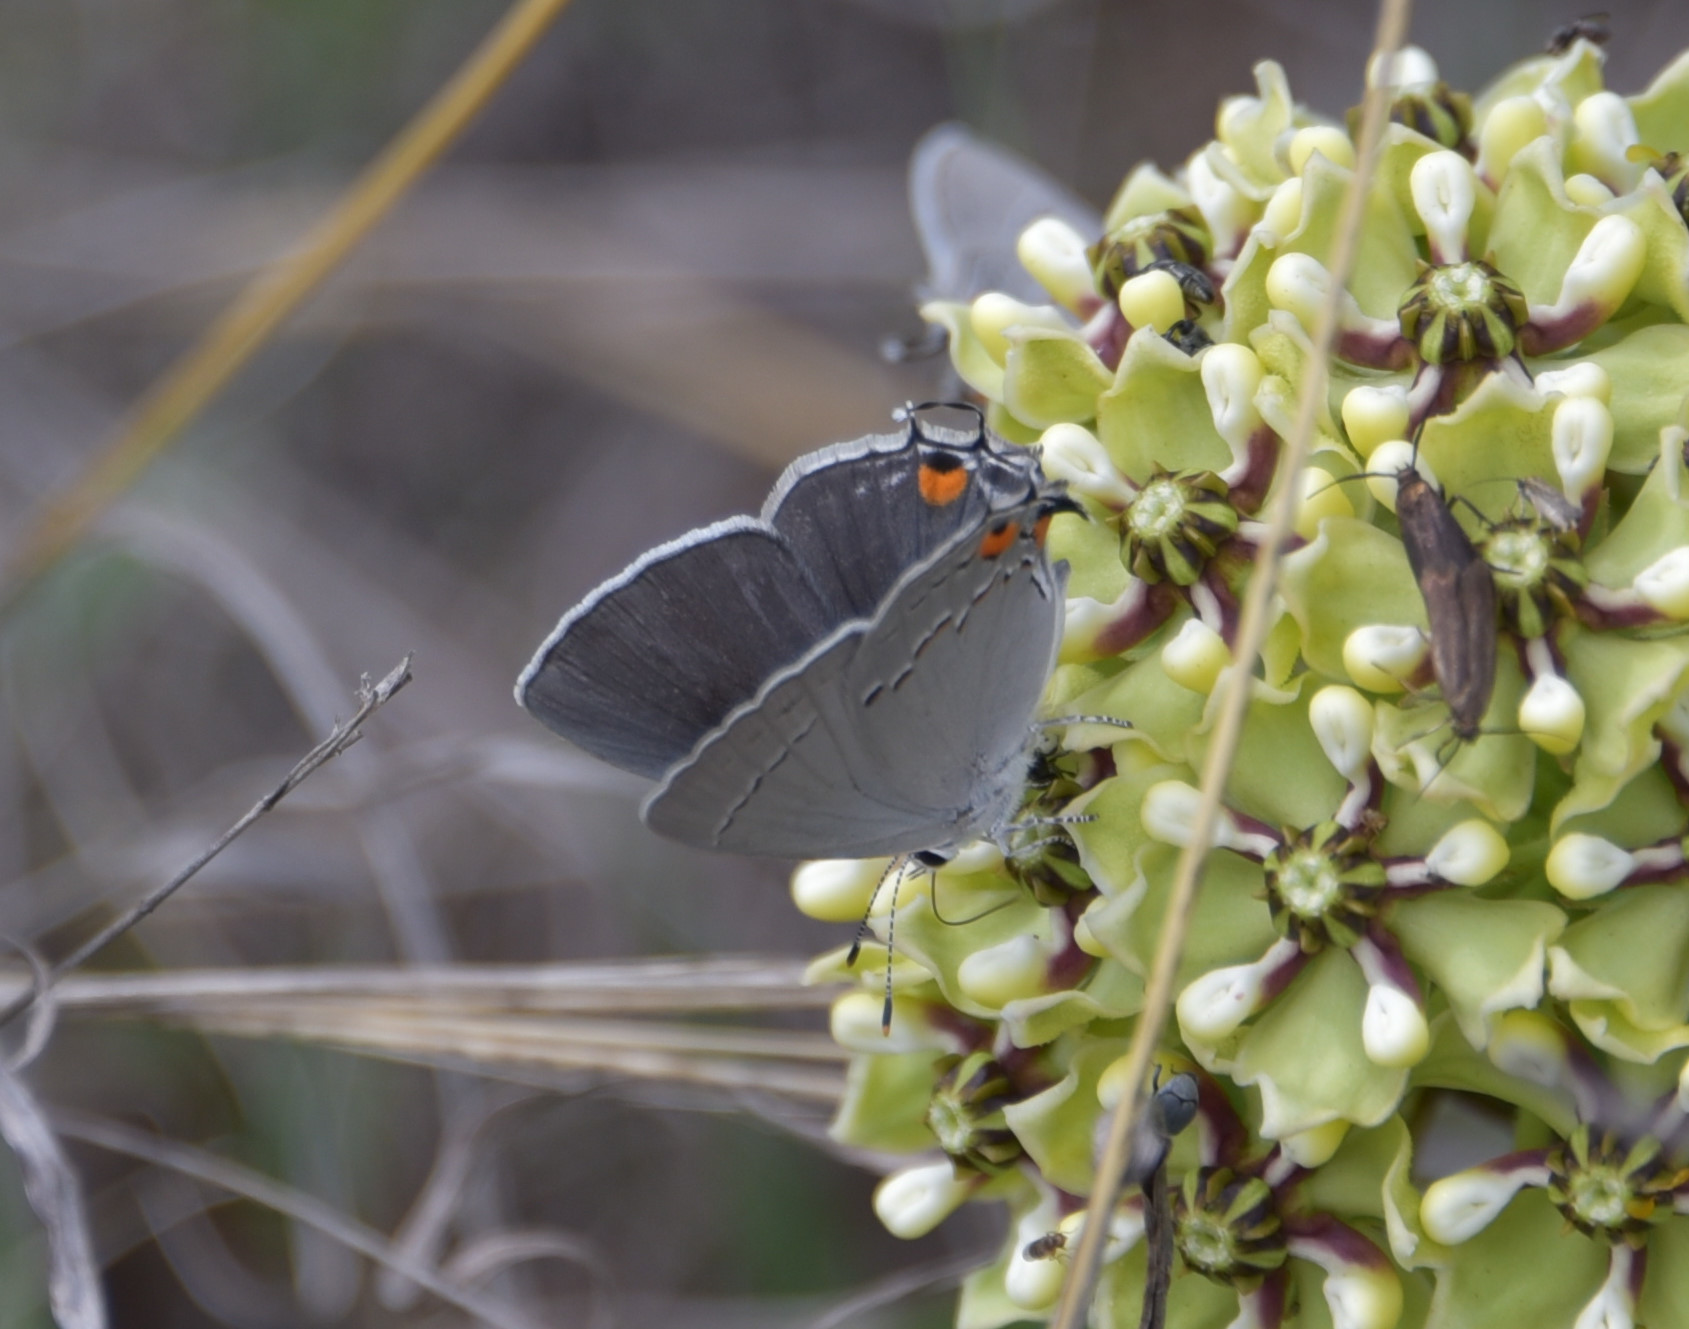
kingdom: Animalia
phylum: Arthropoda
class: Insecta
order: Lepidoptera
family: Lycaenidae
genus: Strymon
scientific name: Strymon melinus
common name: Gray hairstreak
